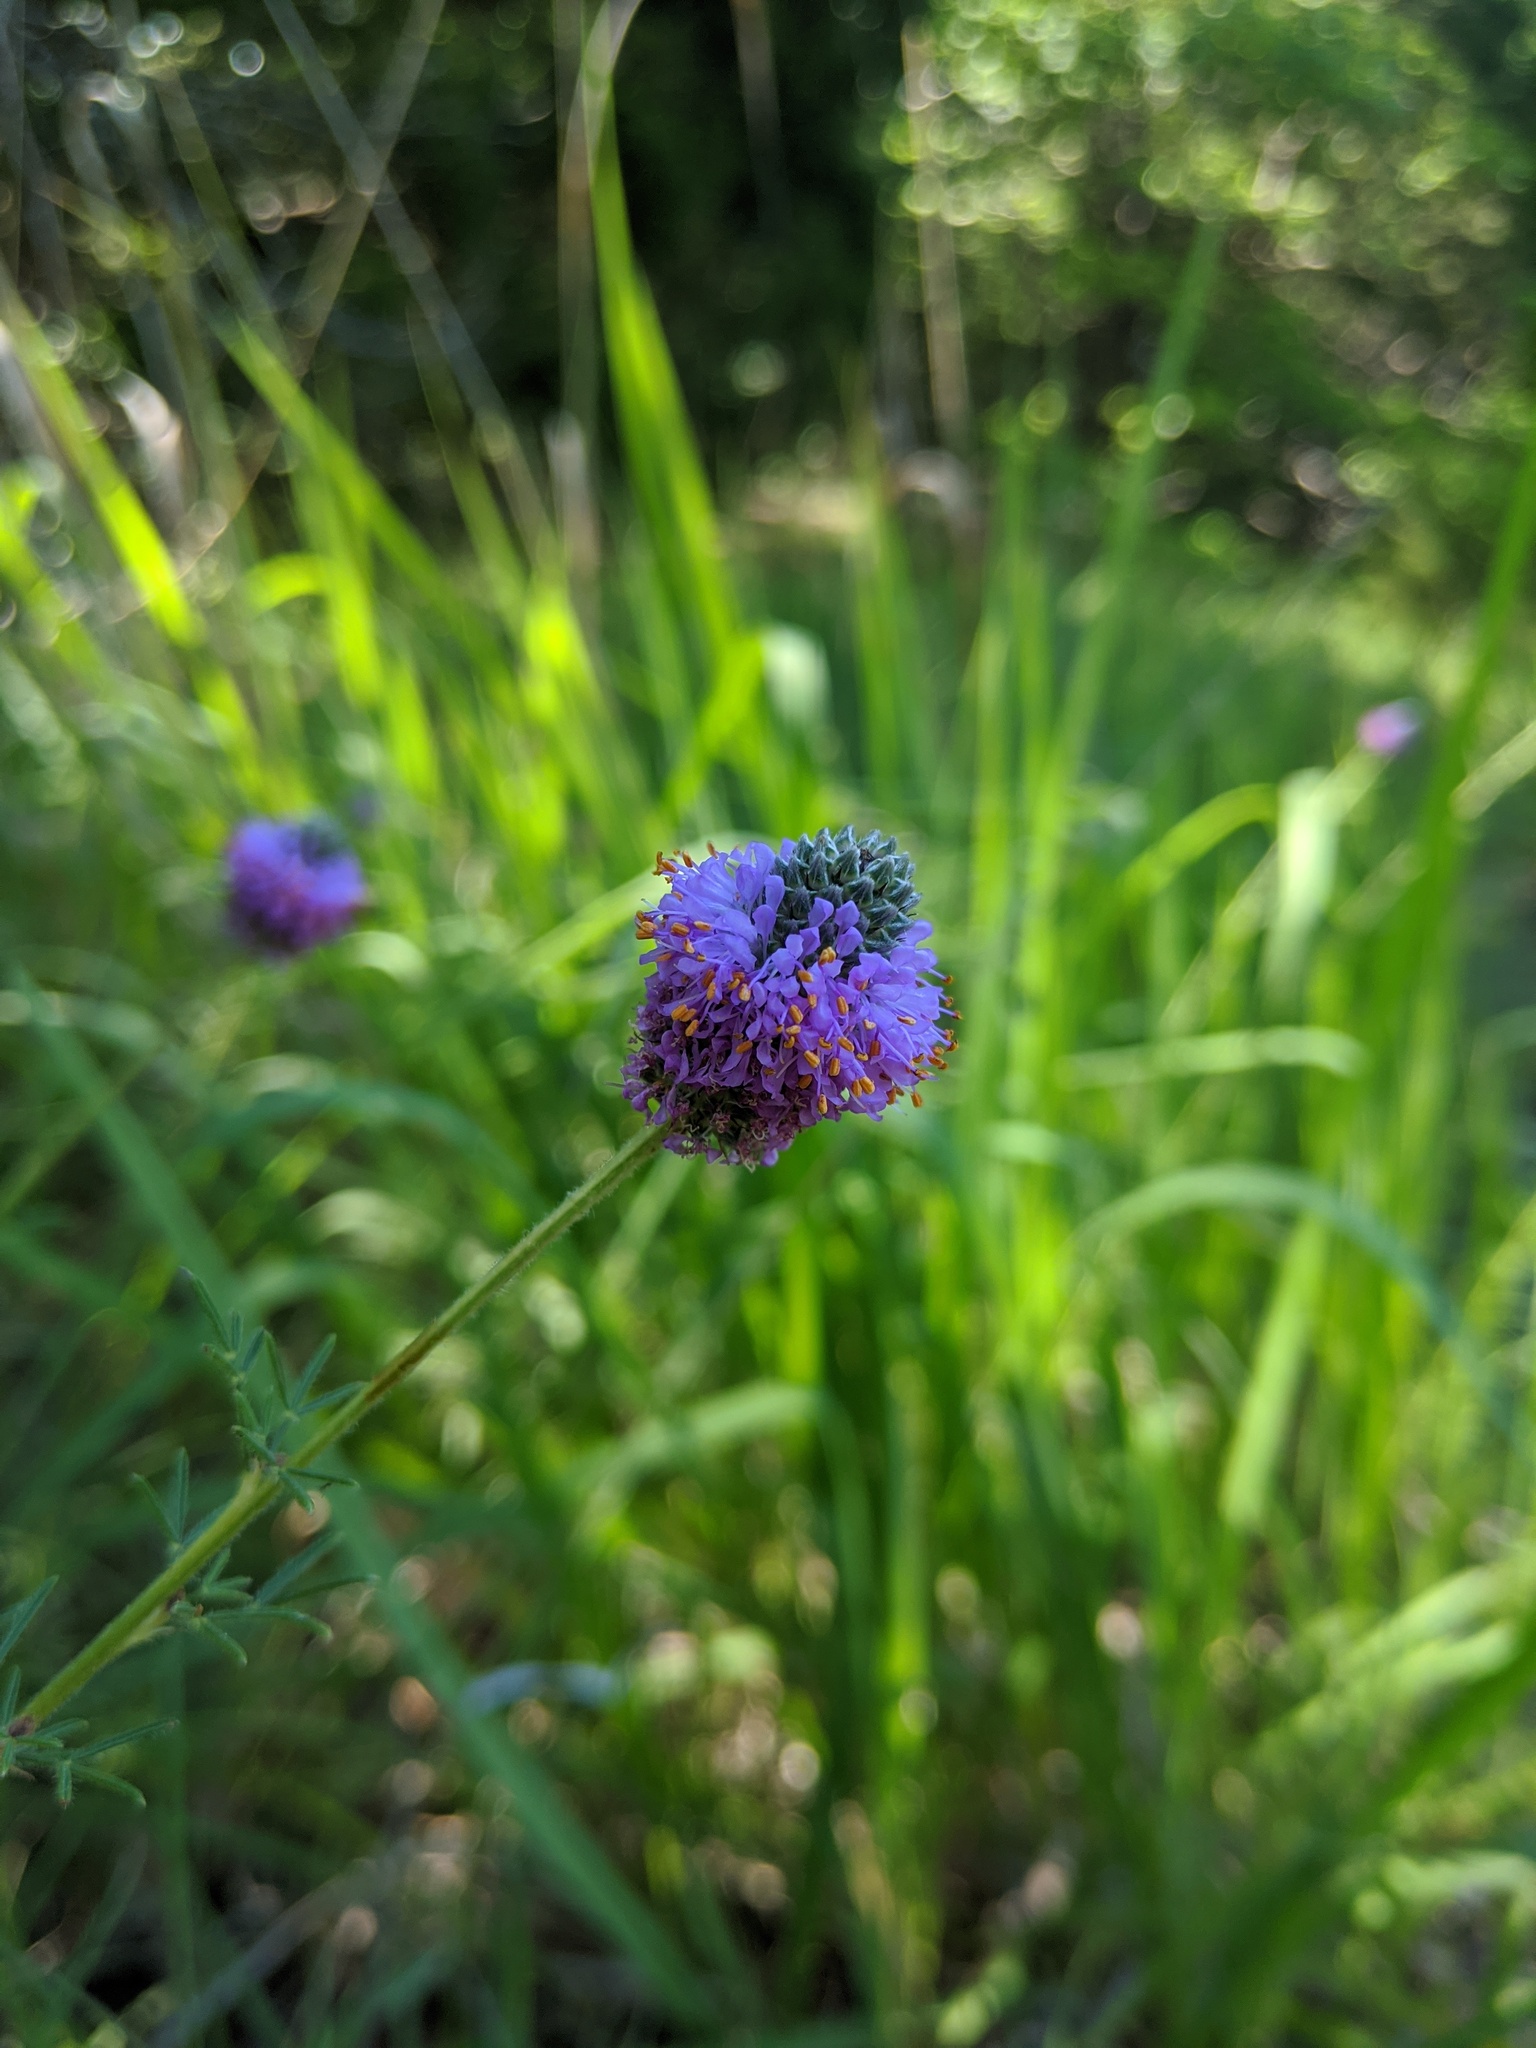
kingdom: Plantae
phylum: Tracheophyta
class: Magnoliopsida
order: Fabales
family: Fabaceae
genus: Dalea
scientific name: Dalea purpurea
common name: Purple prairie-clover
